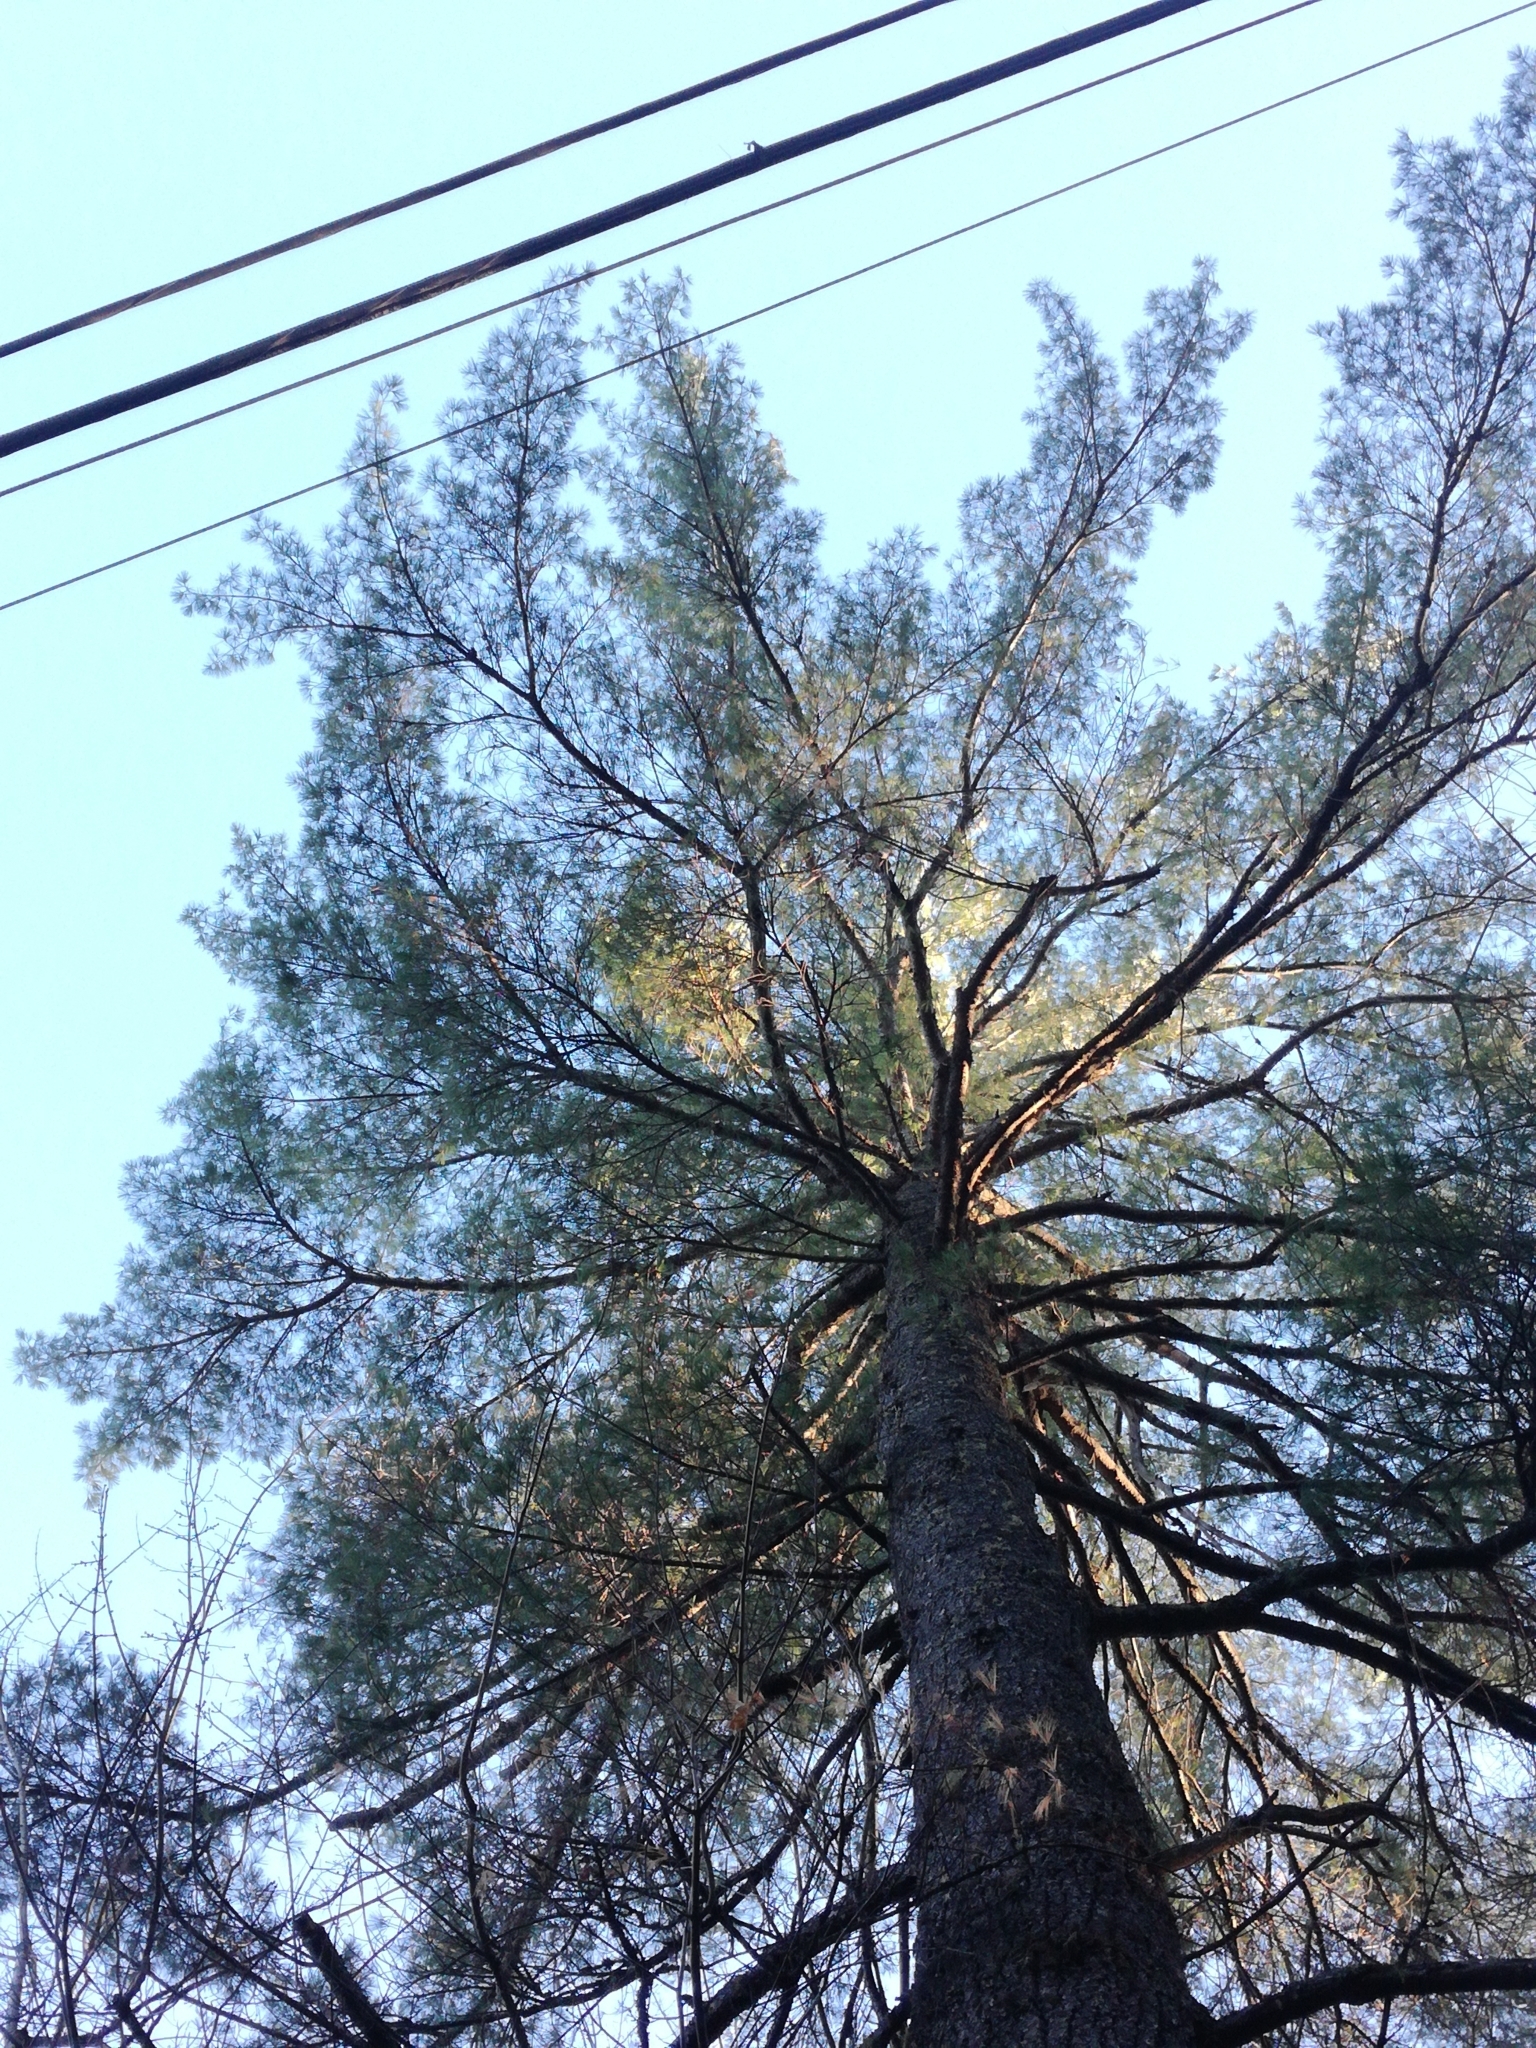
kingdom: Plantae
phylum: Tracheophyta
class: Pinopsida
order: Pinales
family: Pinaceae
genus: Pinus
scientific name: Pinus strobus
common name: Weymouth pine
